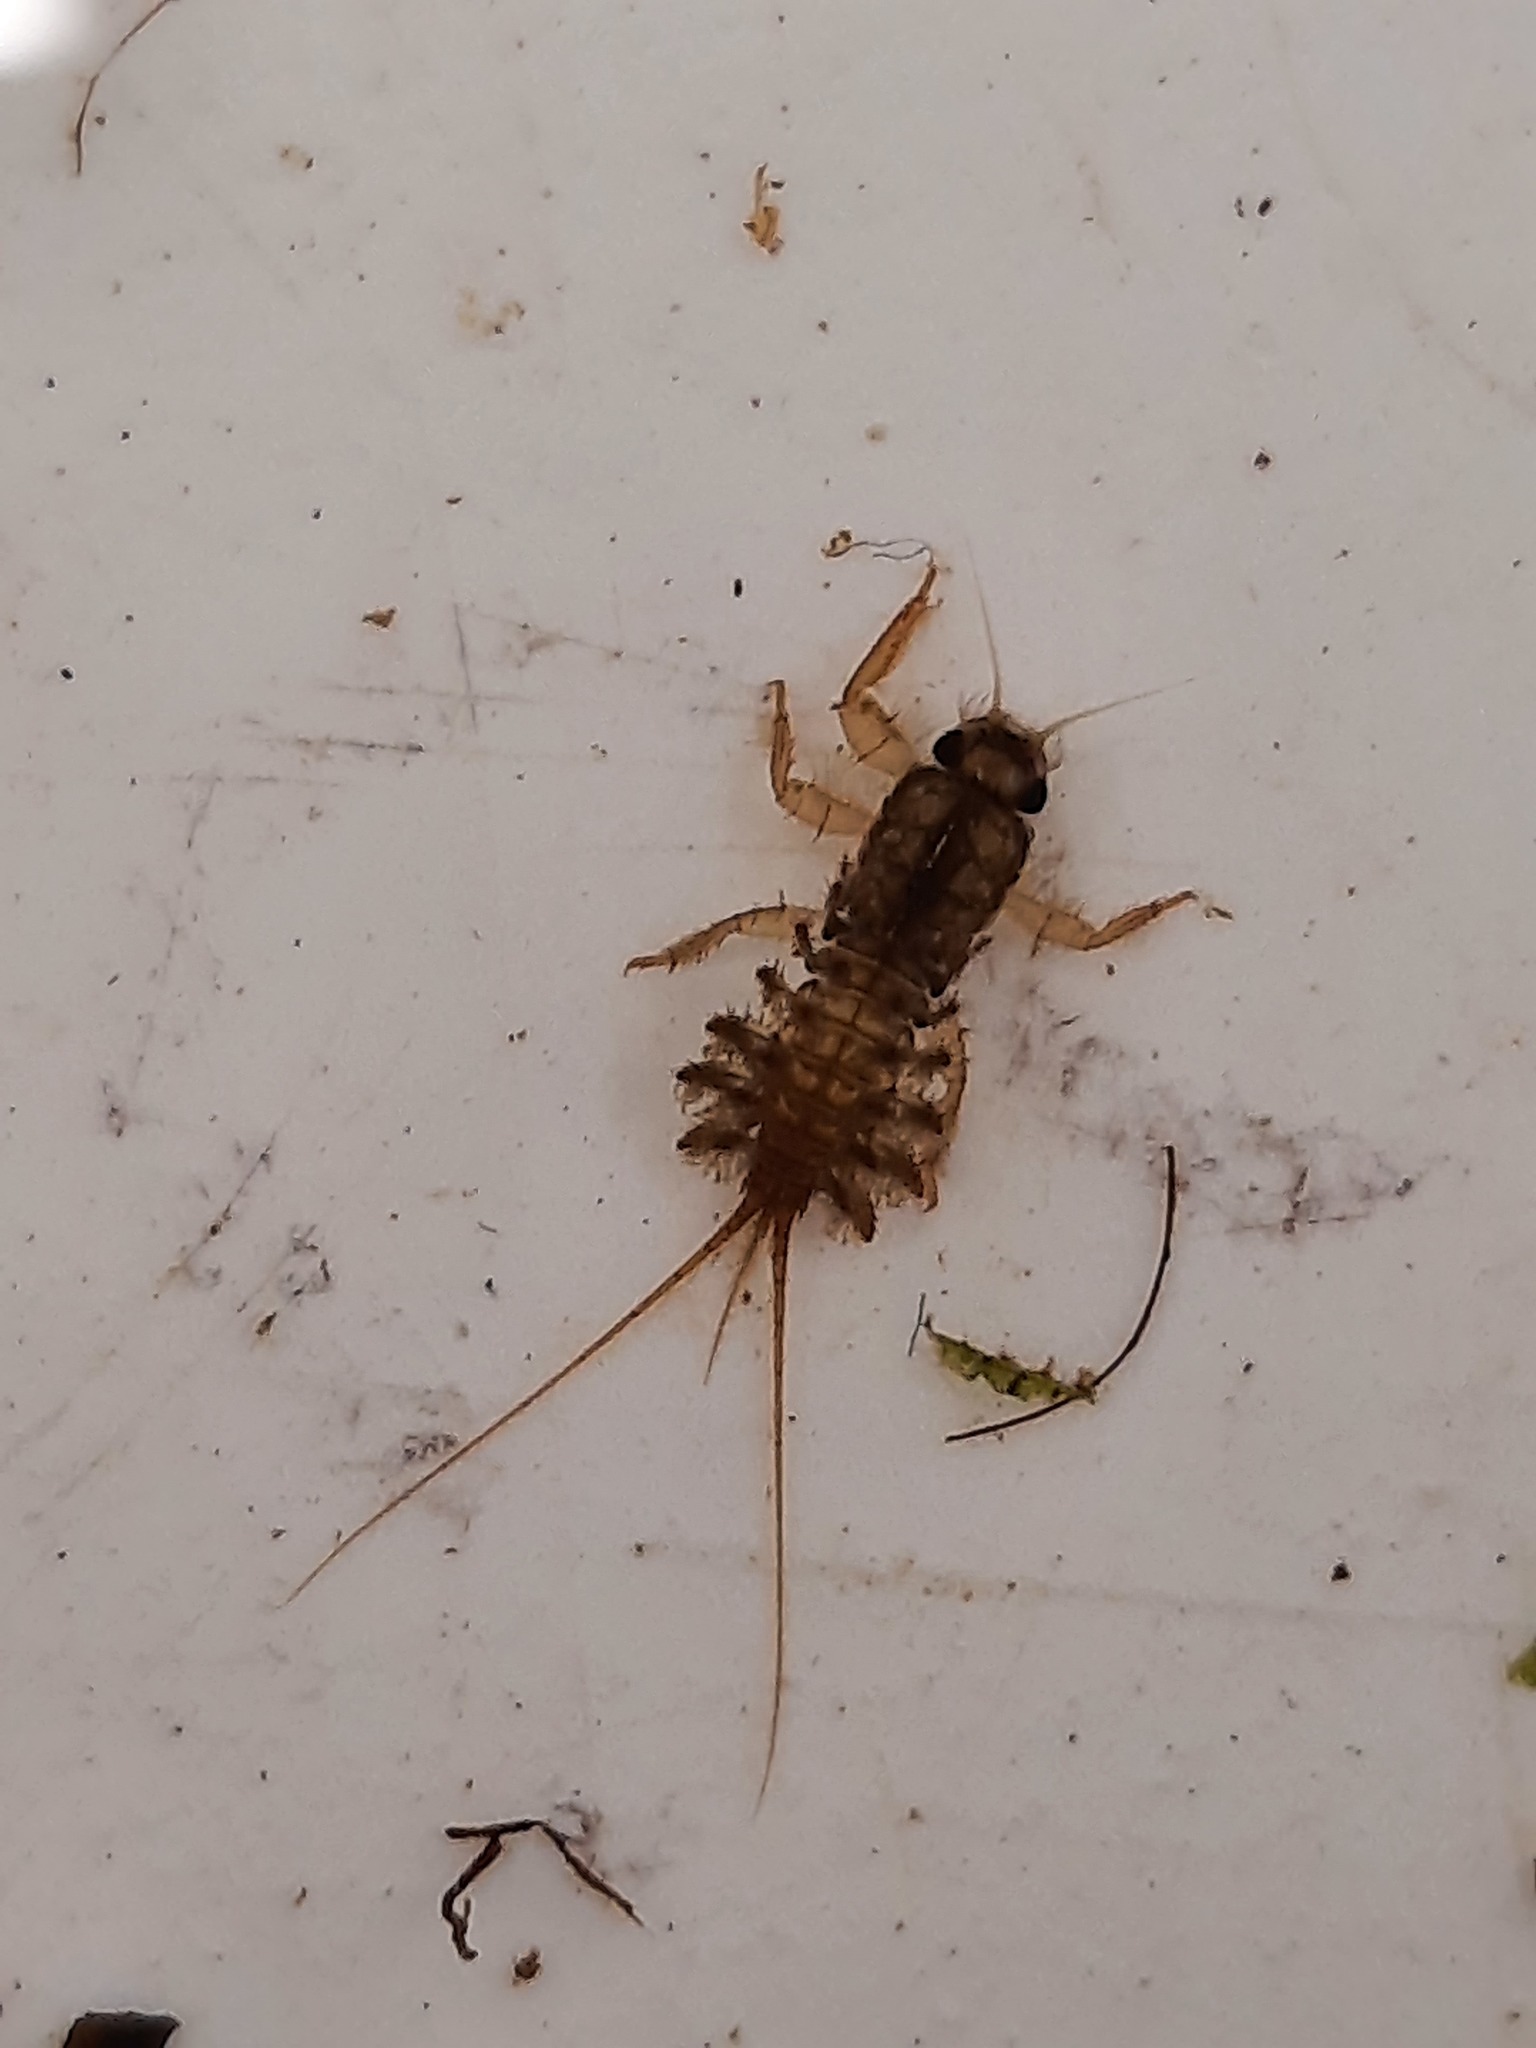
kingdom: Animalia
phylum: Arthropoda
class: Insecta
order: Ephemeroptera
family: Coloburiscidae
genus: Coloburiscus
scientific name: Coloburiscus humeralis
